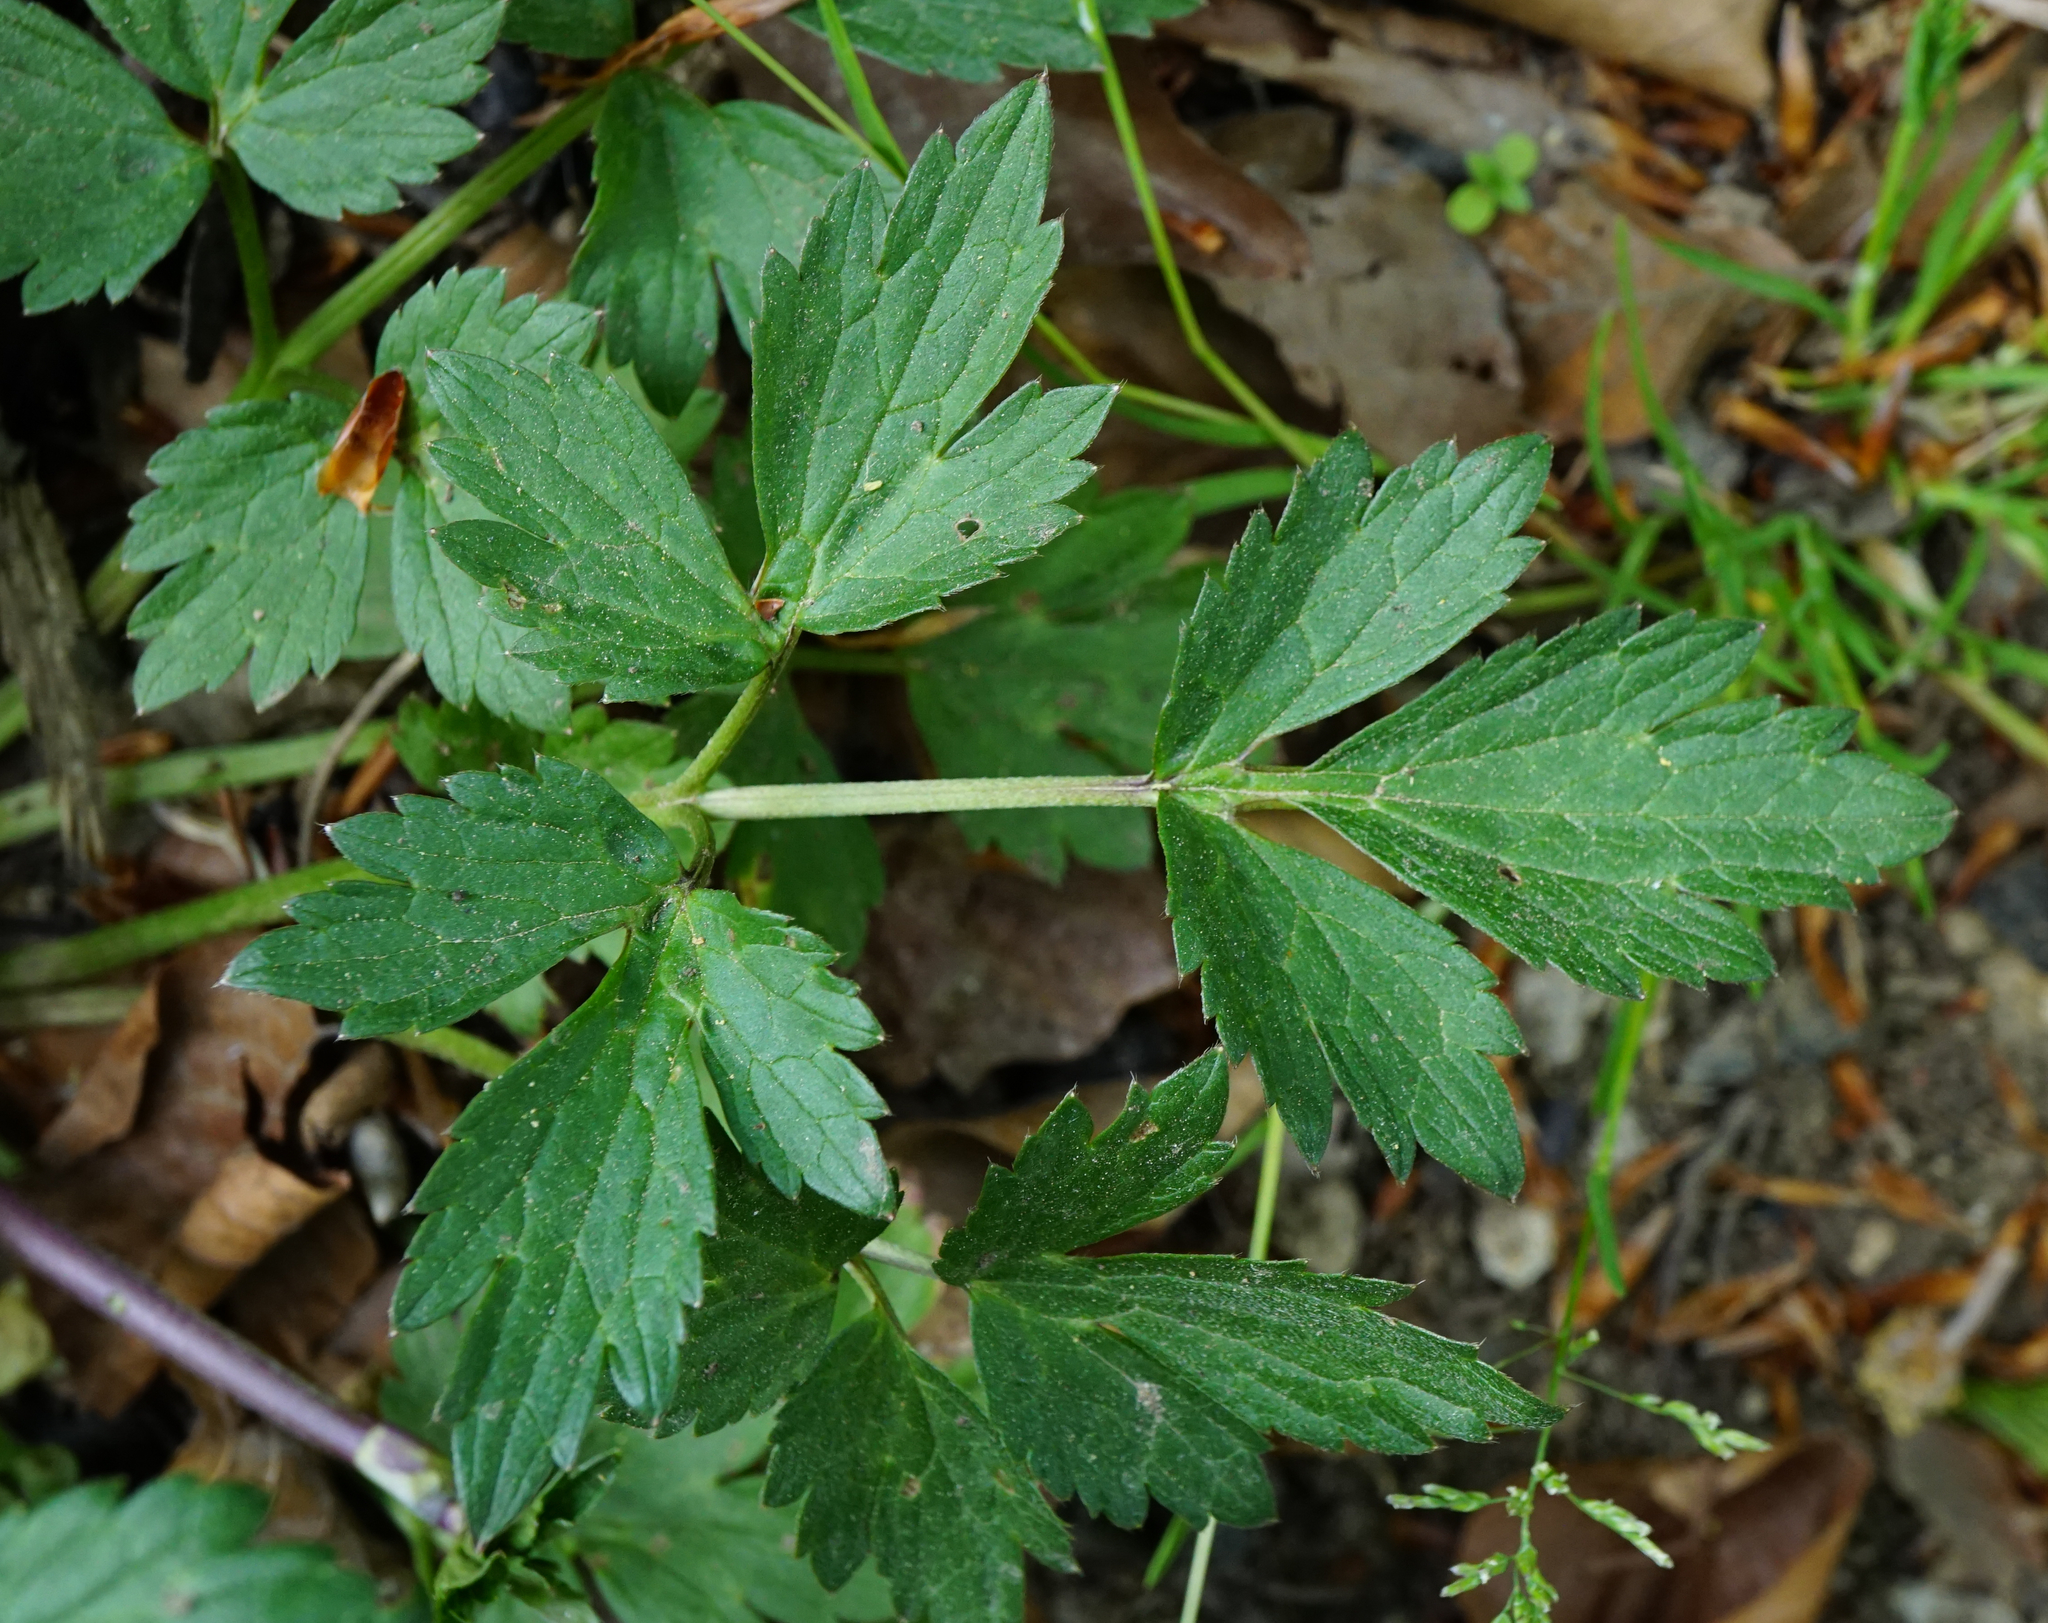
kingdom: Plantae
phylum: Tracheophyta
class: Magnoliopsida
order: Ranunculales
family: Ranunculaceae
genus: Ranunculus
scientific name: Ranunculus repens
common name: Creeping buttercup
